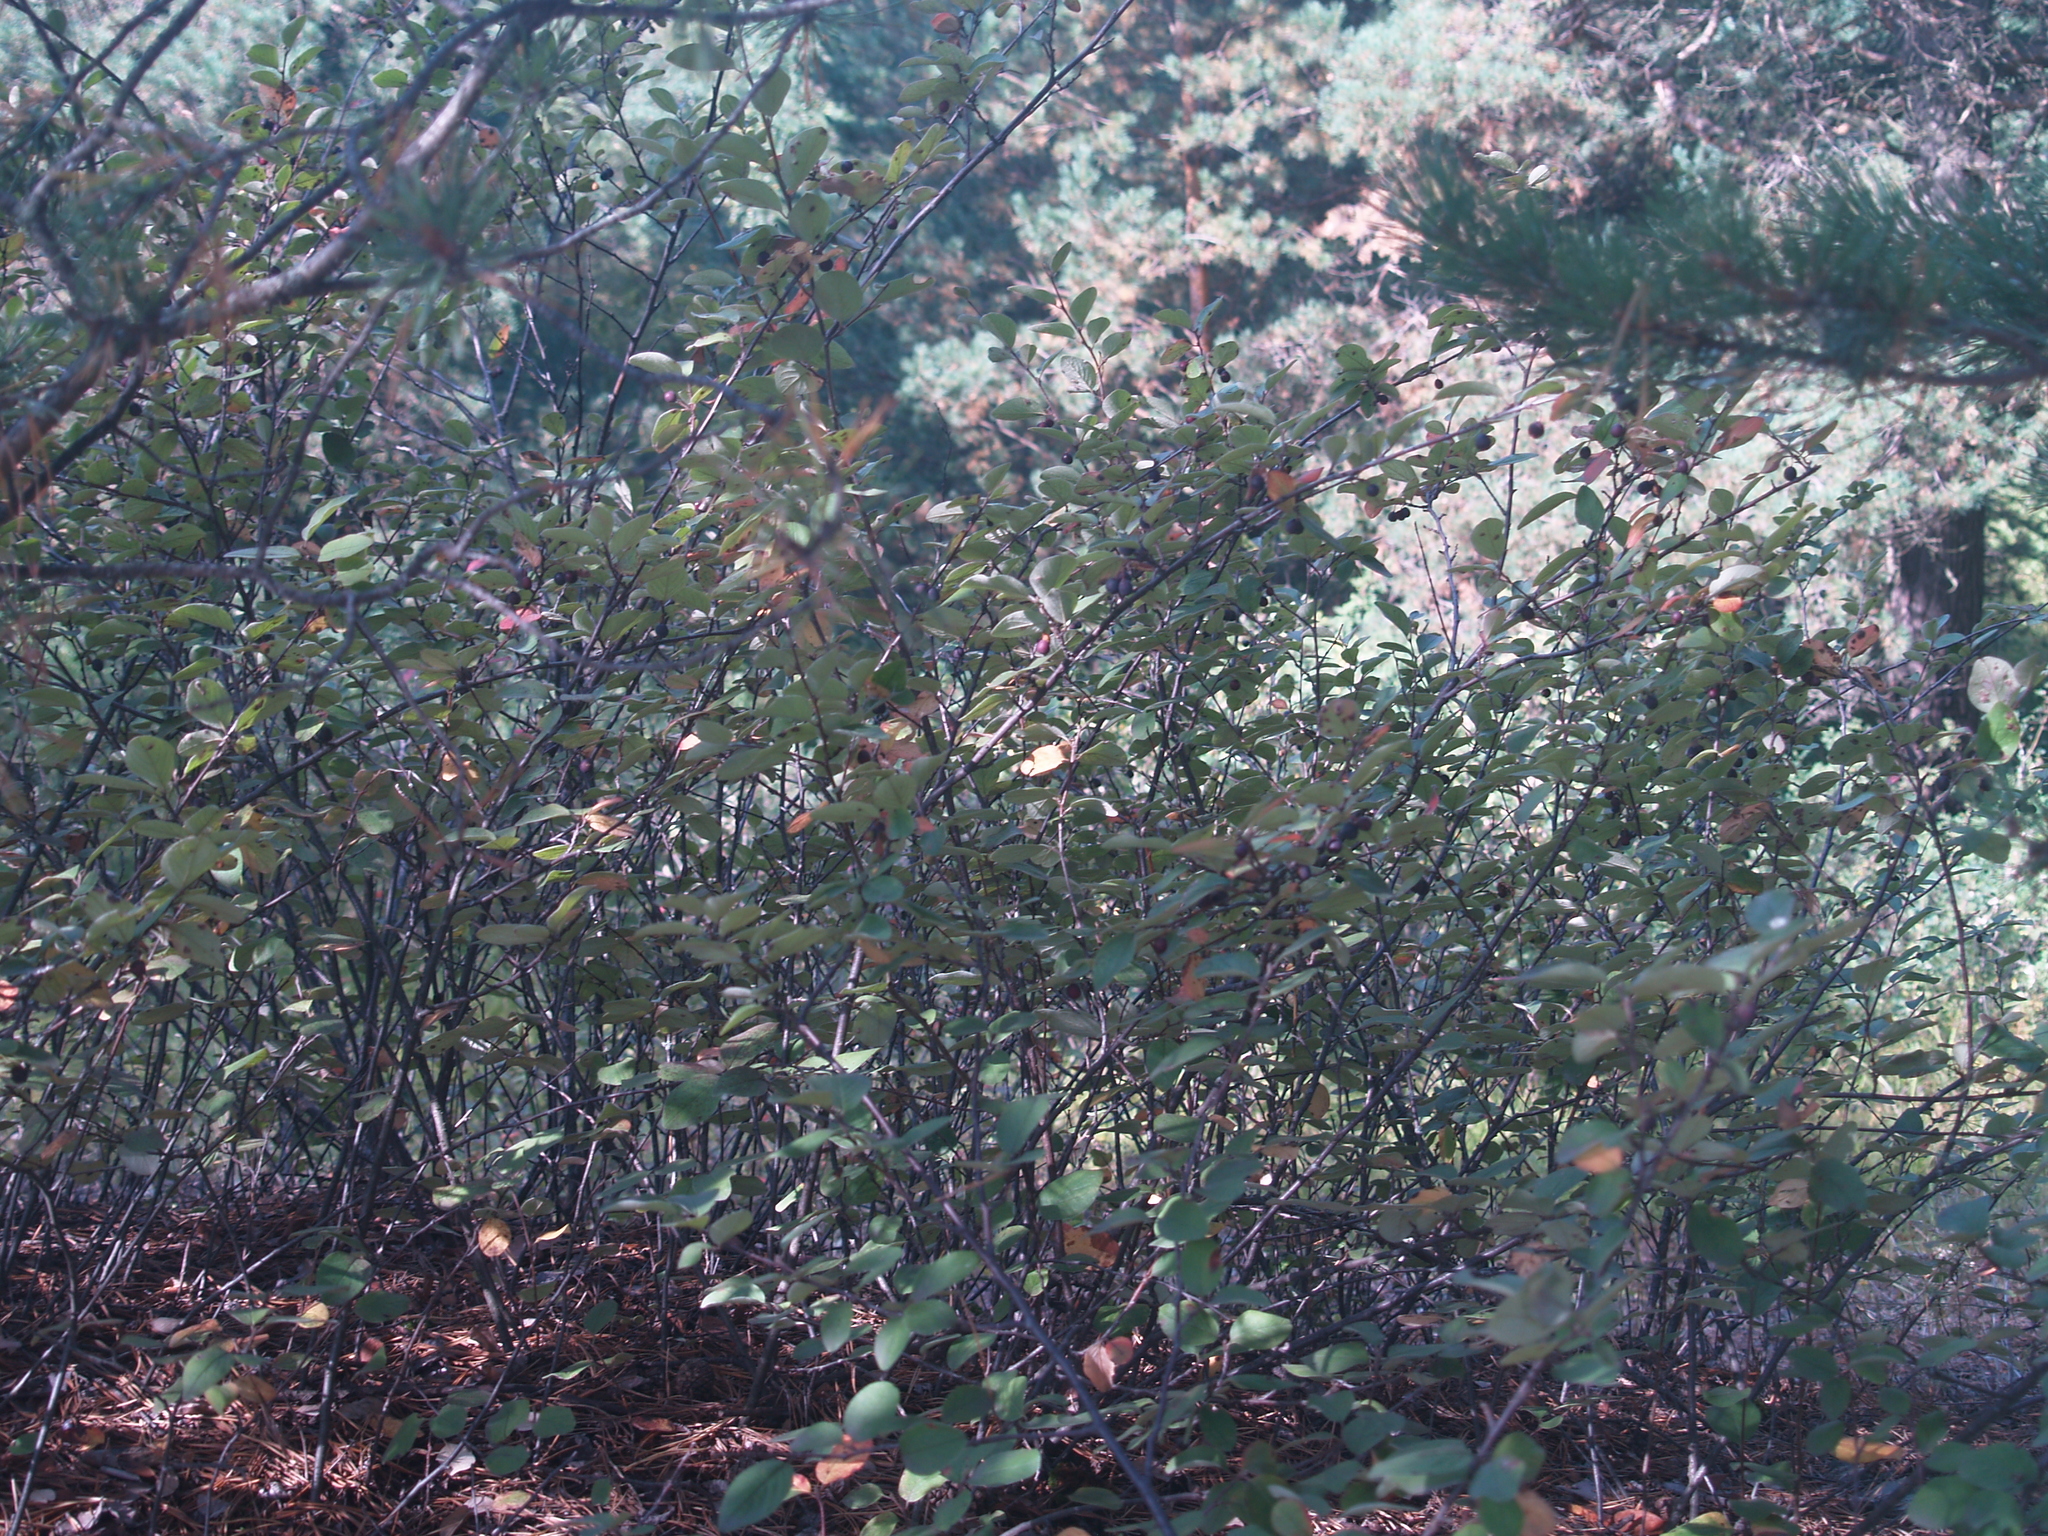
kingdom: Plantae
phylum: Tracheophyta
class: Magnoliopsida
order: Rosales
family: Rosaceae
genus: Cotoneaster
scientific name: Cotoneaster melanocarpus
